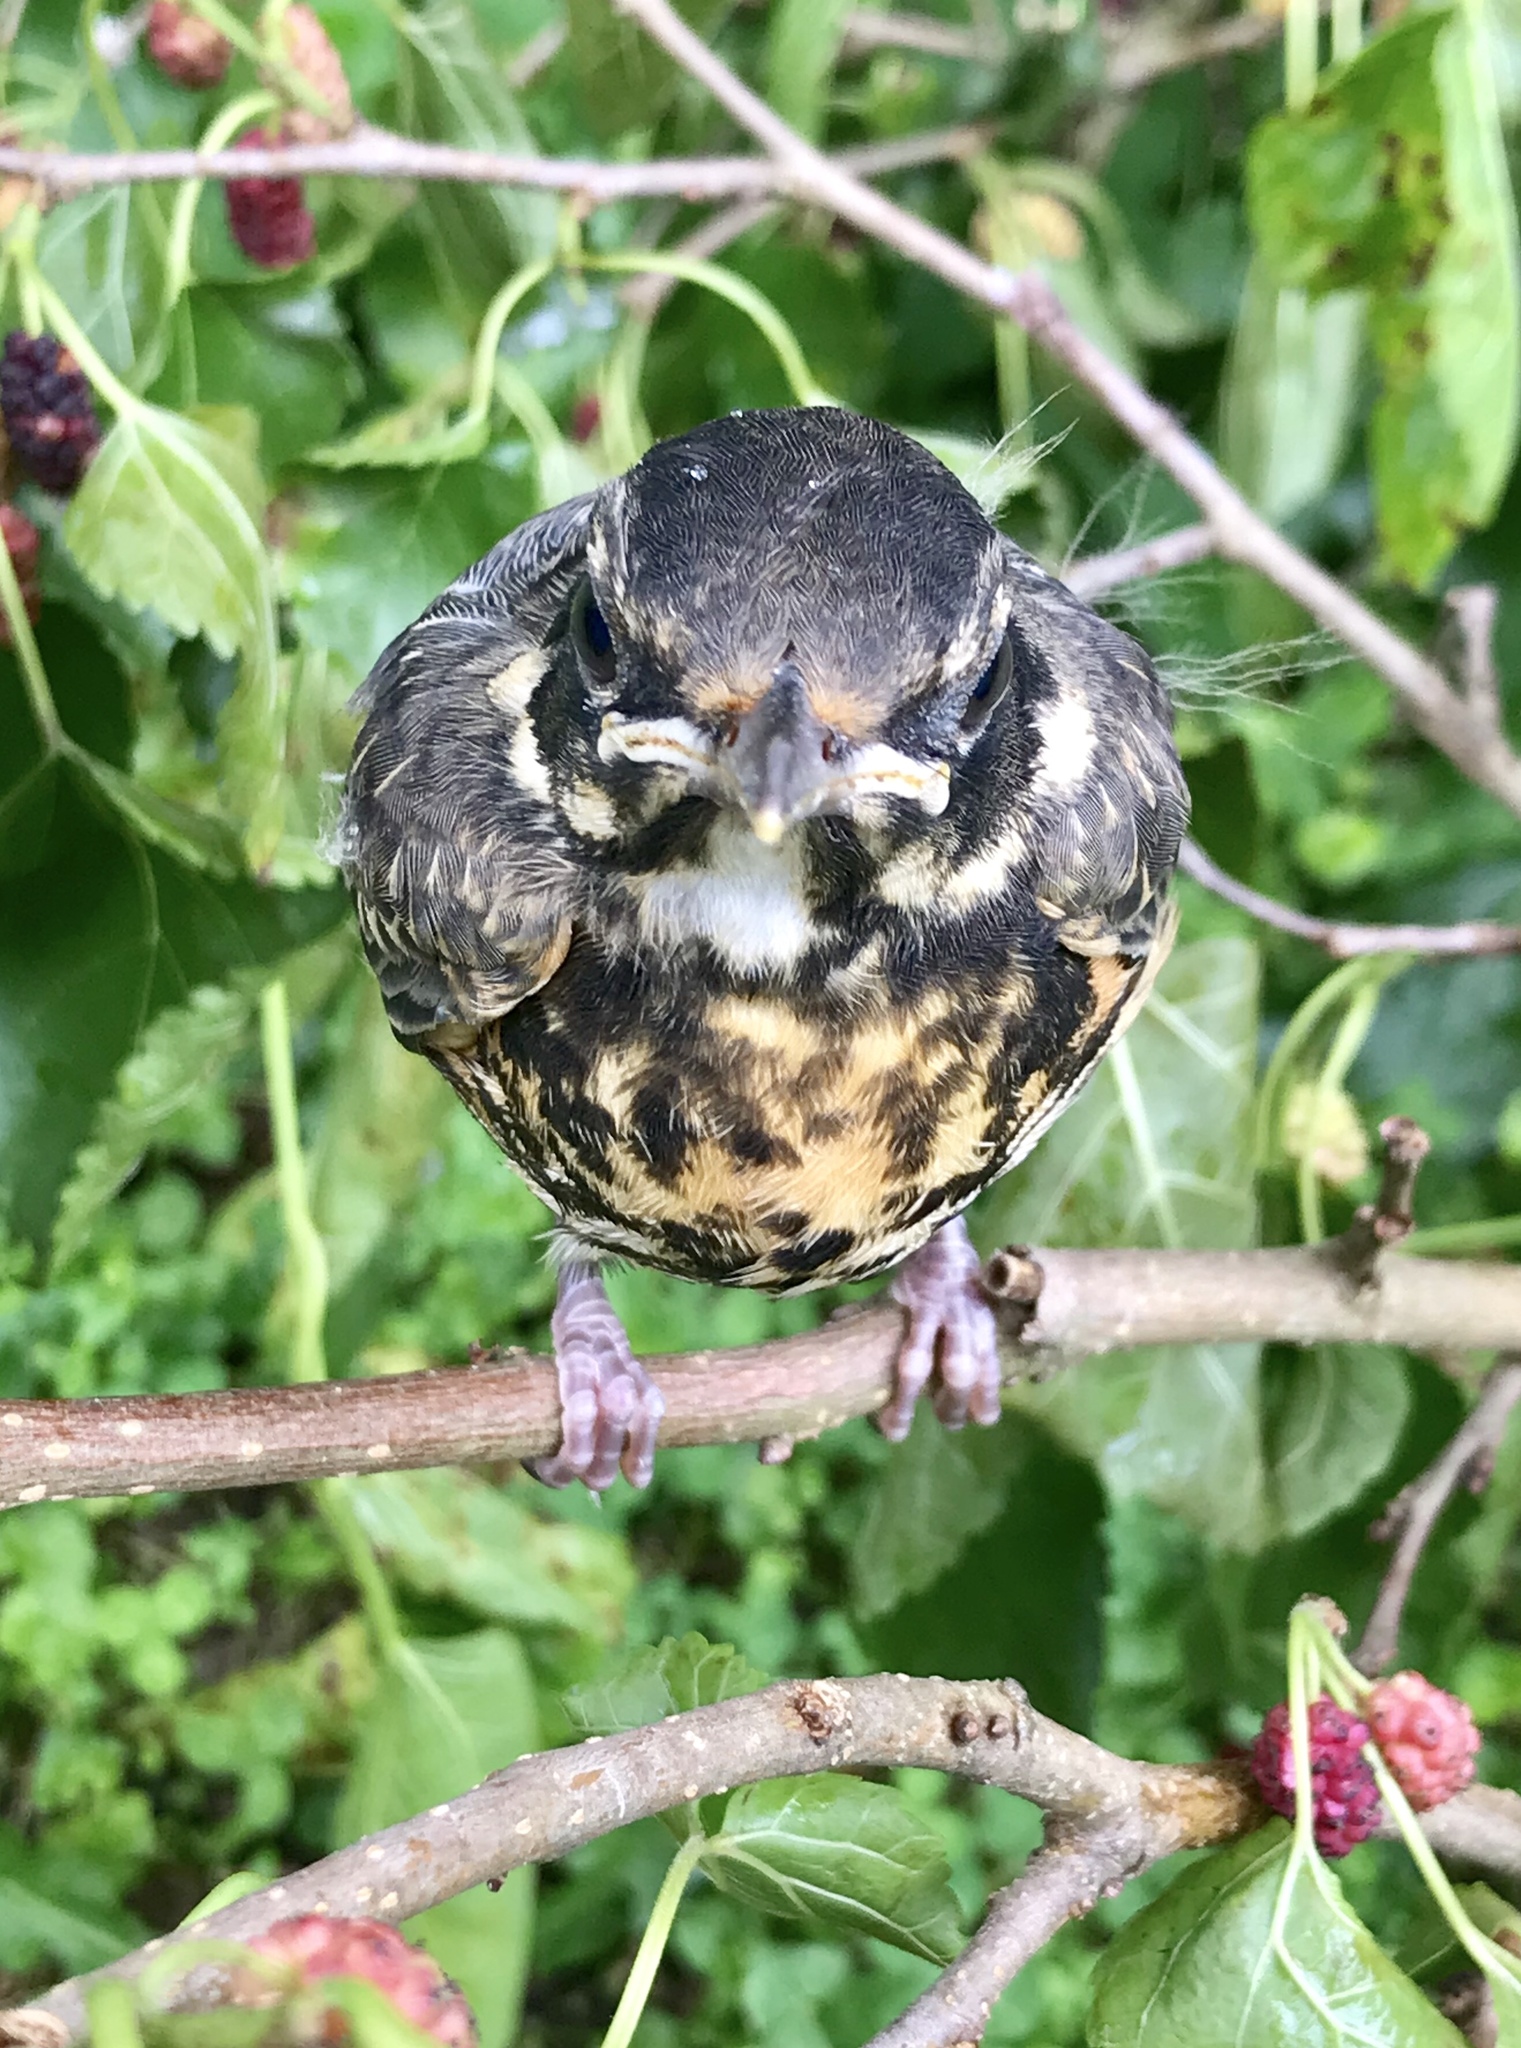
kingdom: Animalia
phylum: Chordata
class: Aves
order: Passeriformes
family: Turdidae
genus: Turdus
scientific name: Turdus migratorius
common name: American robin
